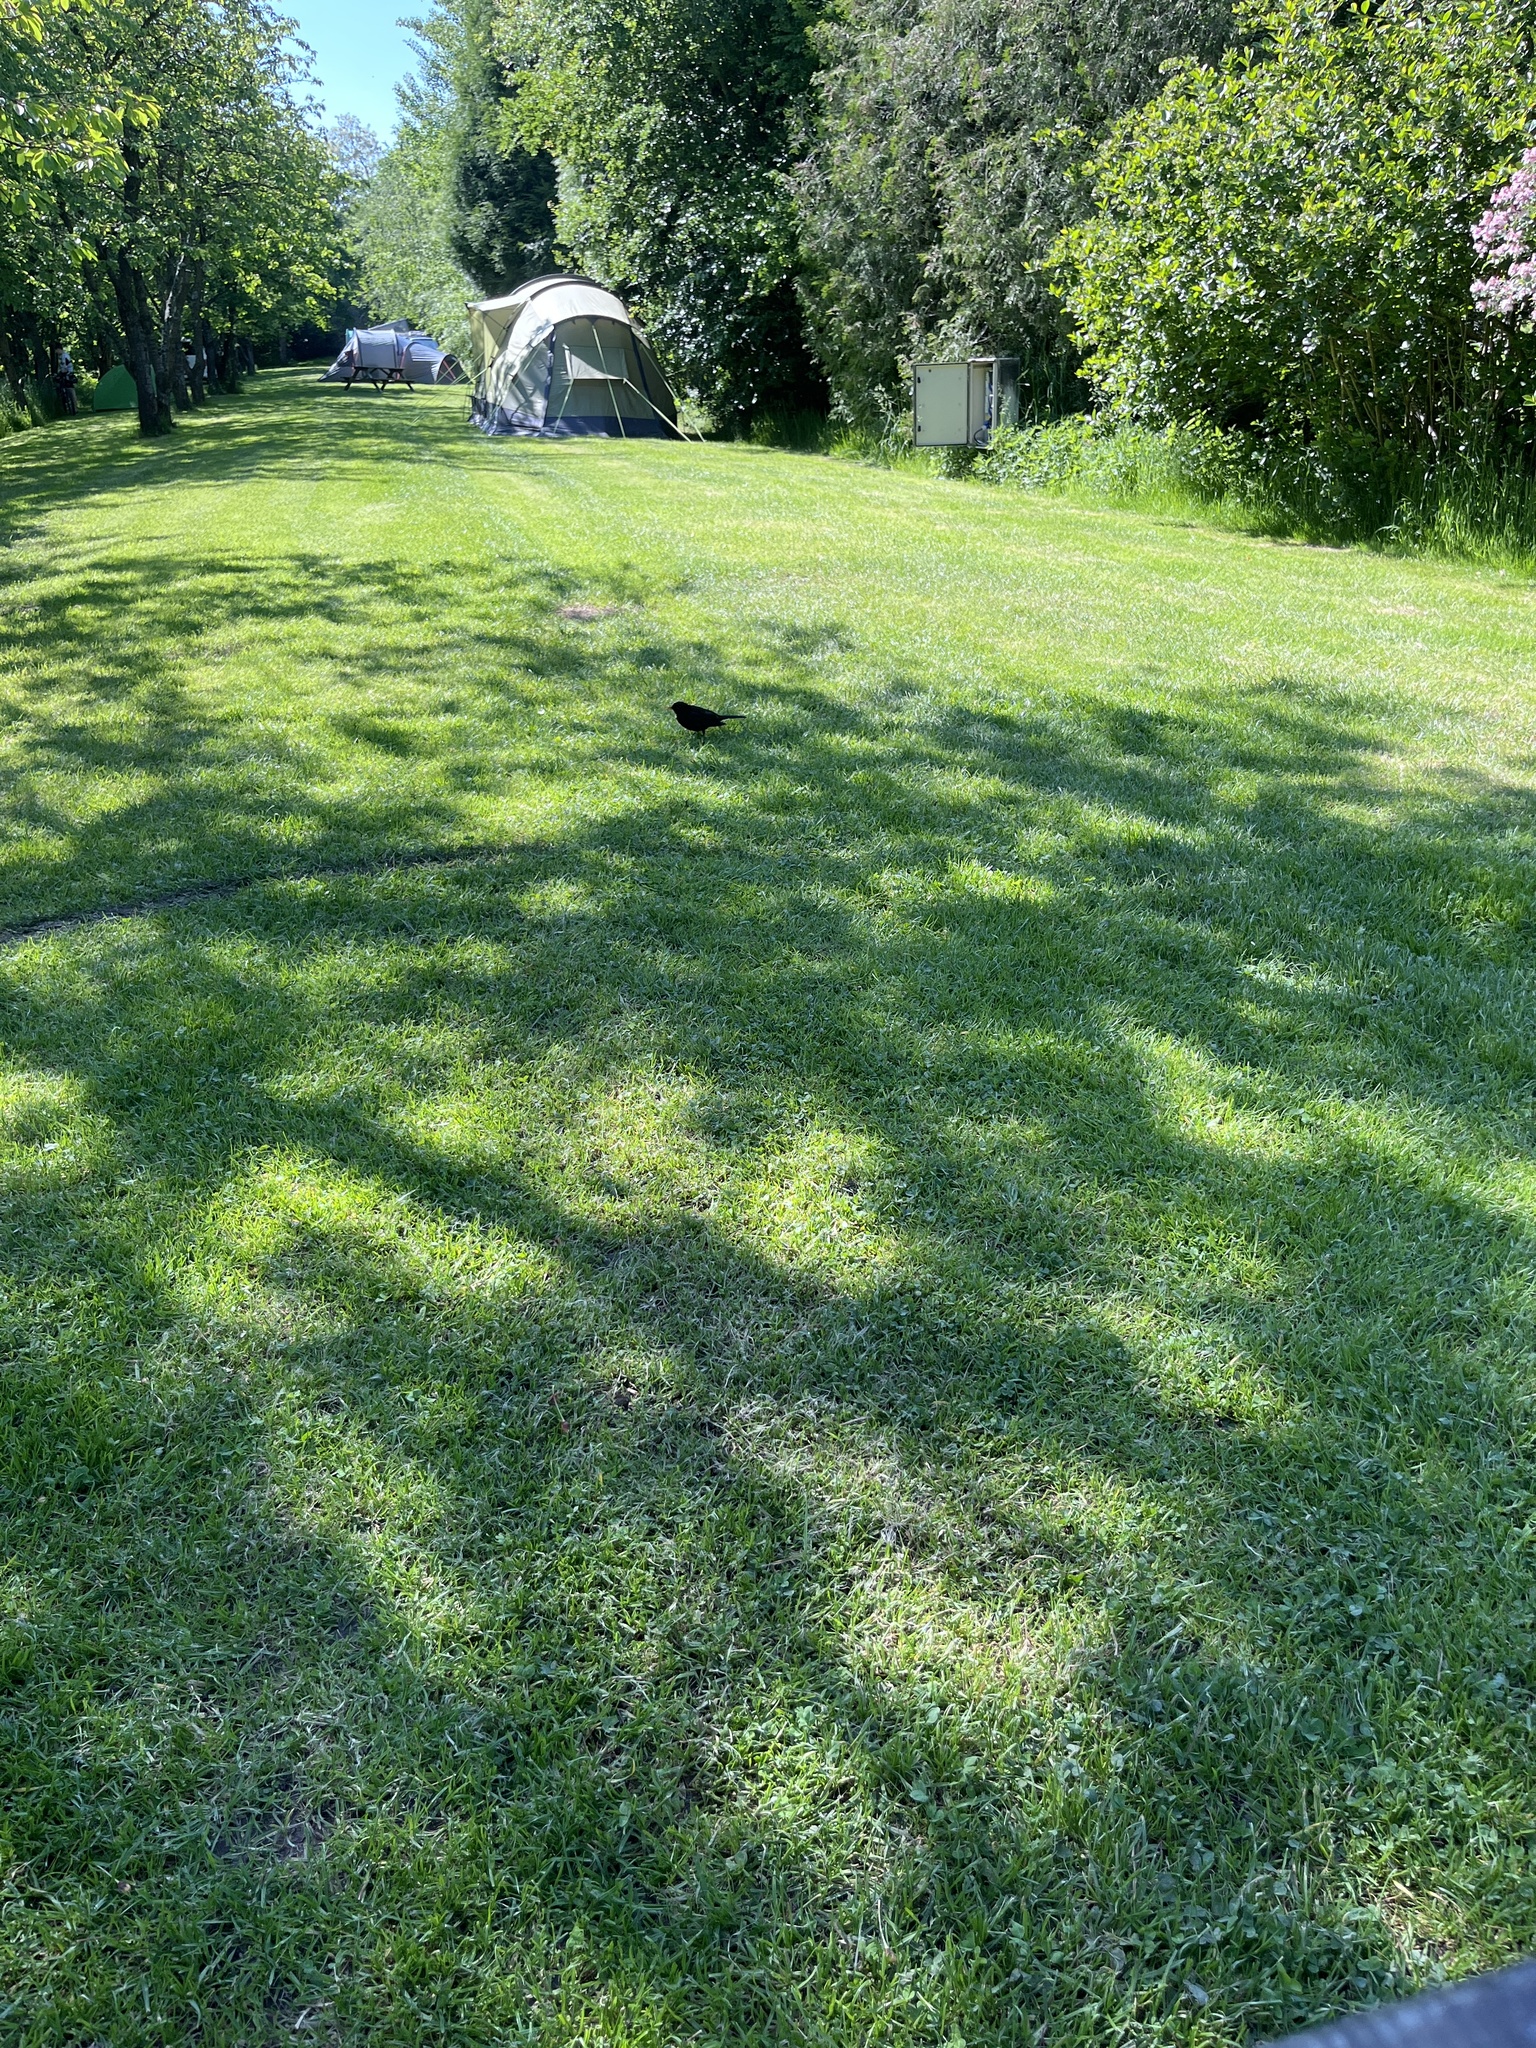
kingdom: Animalia
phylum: Chordata
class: Aves
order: Passeriformes
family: Turdidae
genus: Turdus
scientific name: Turdus merula
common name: Common blackbird
